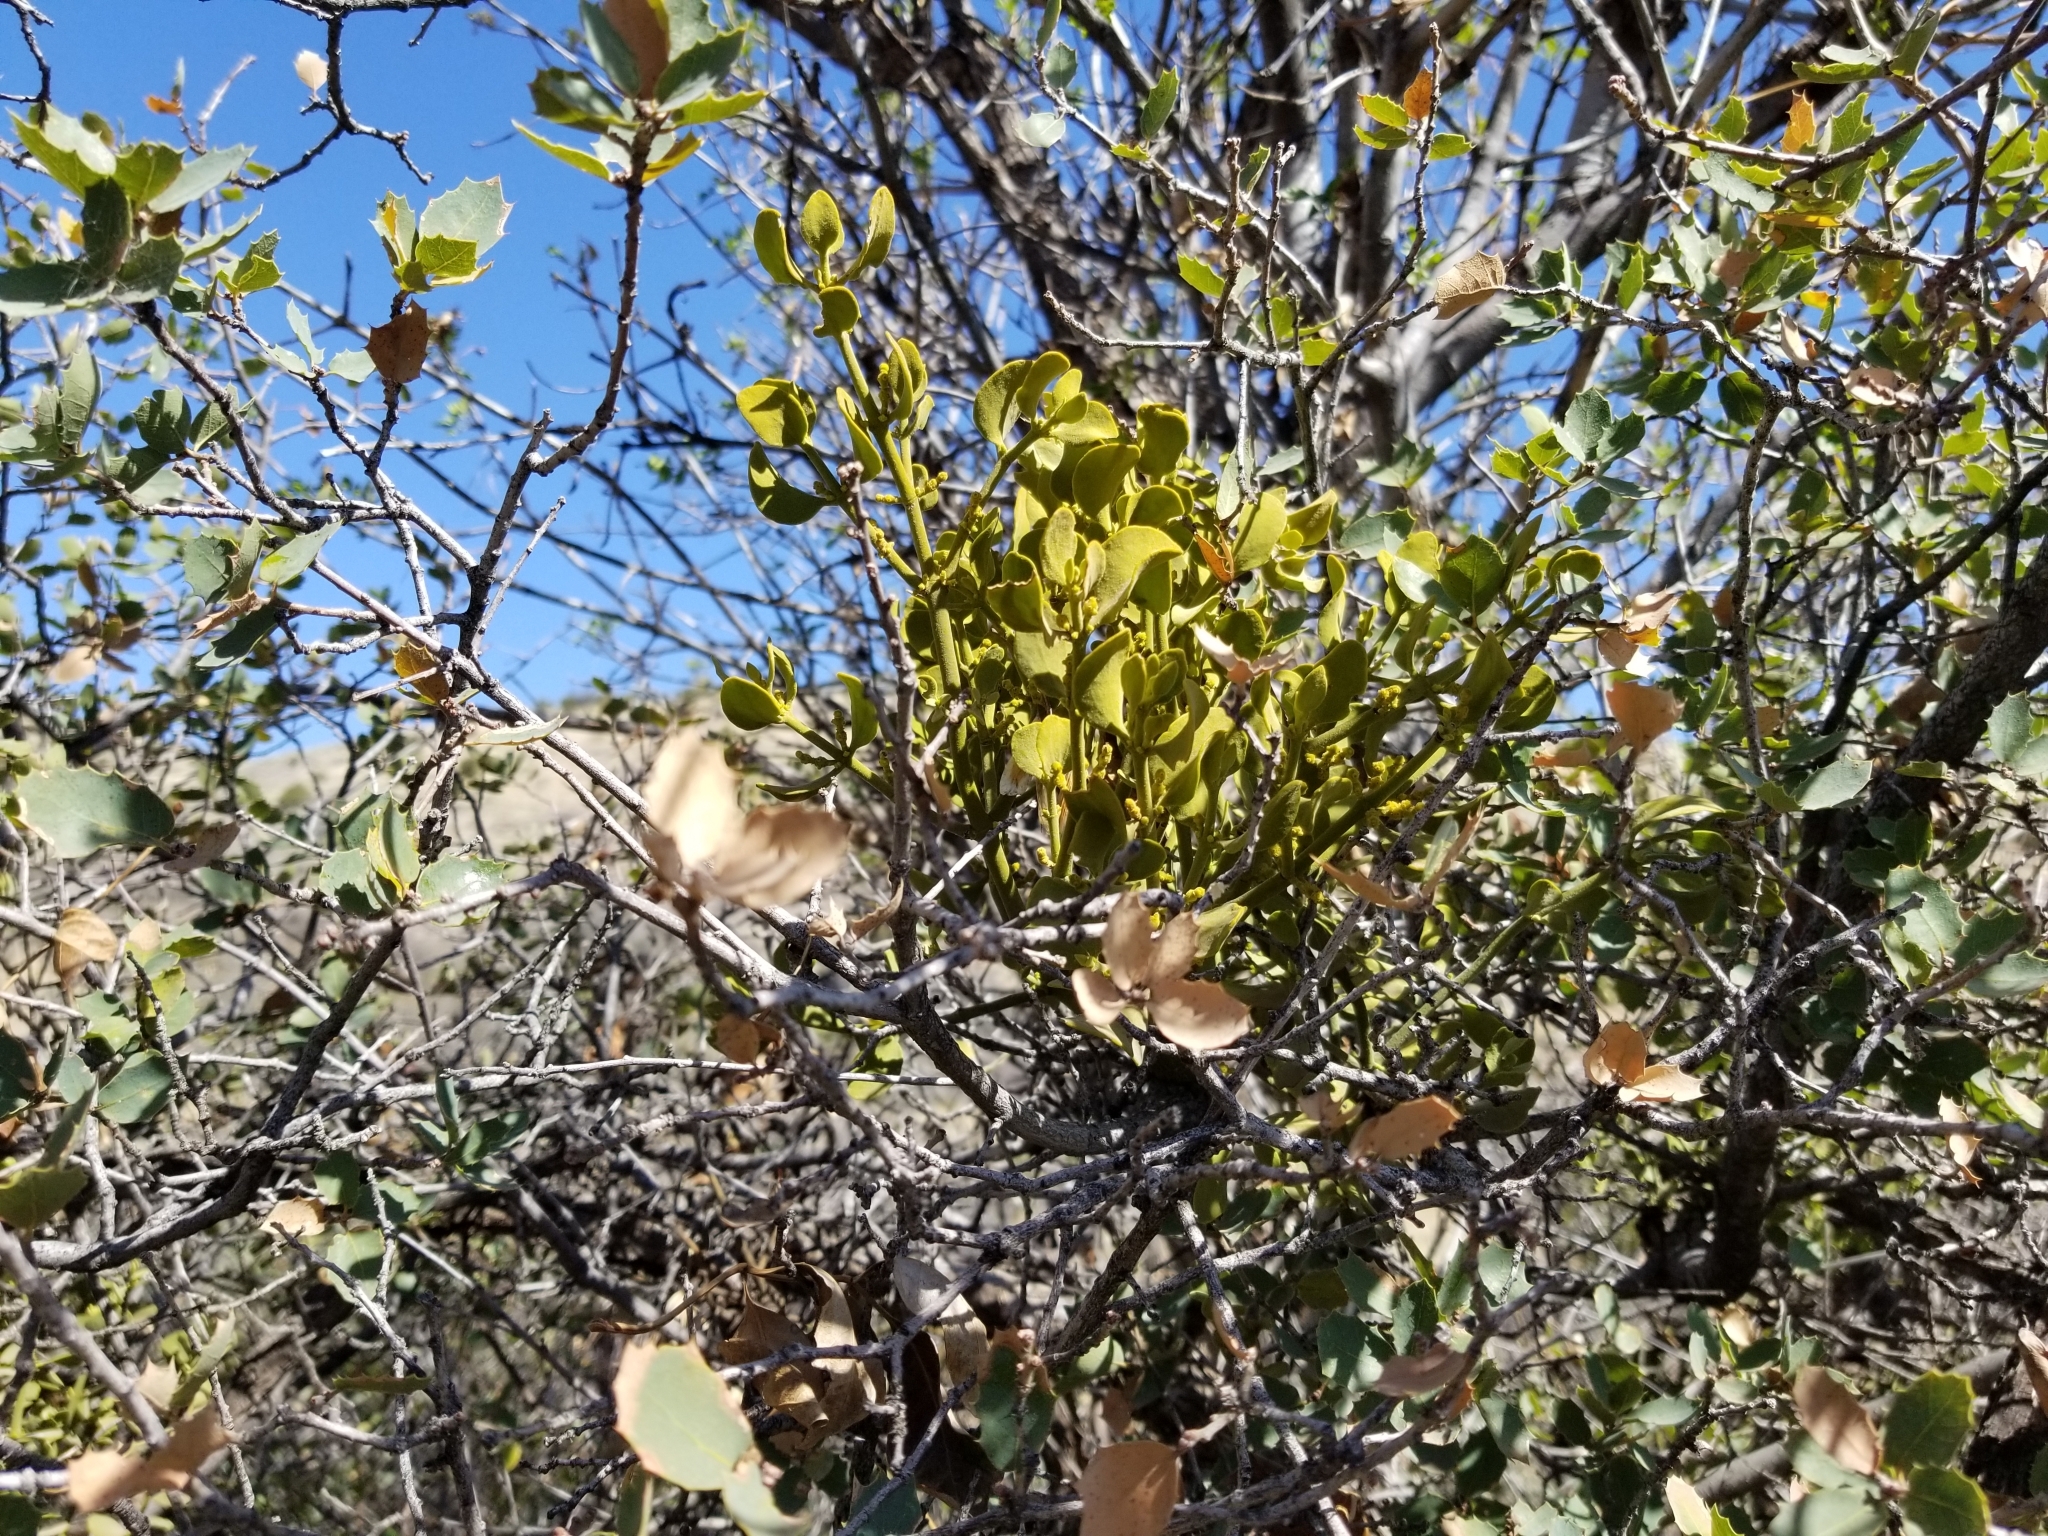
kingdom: Plantae
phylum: Tracheophyta
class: Magnoliopsida
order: Santalales
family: Viscaceae
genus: Phoradendron
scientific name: Phoradendron coryae
